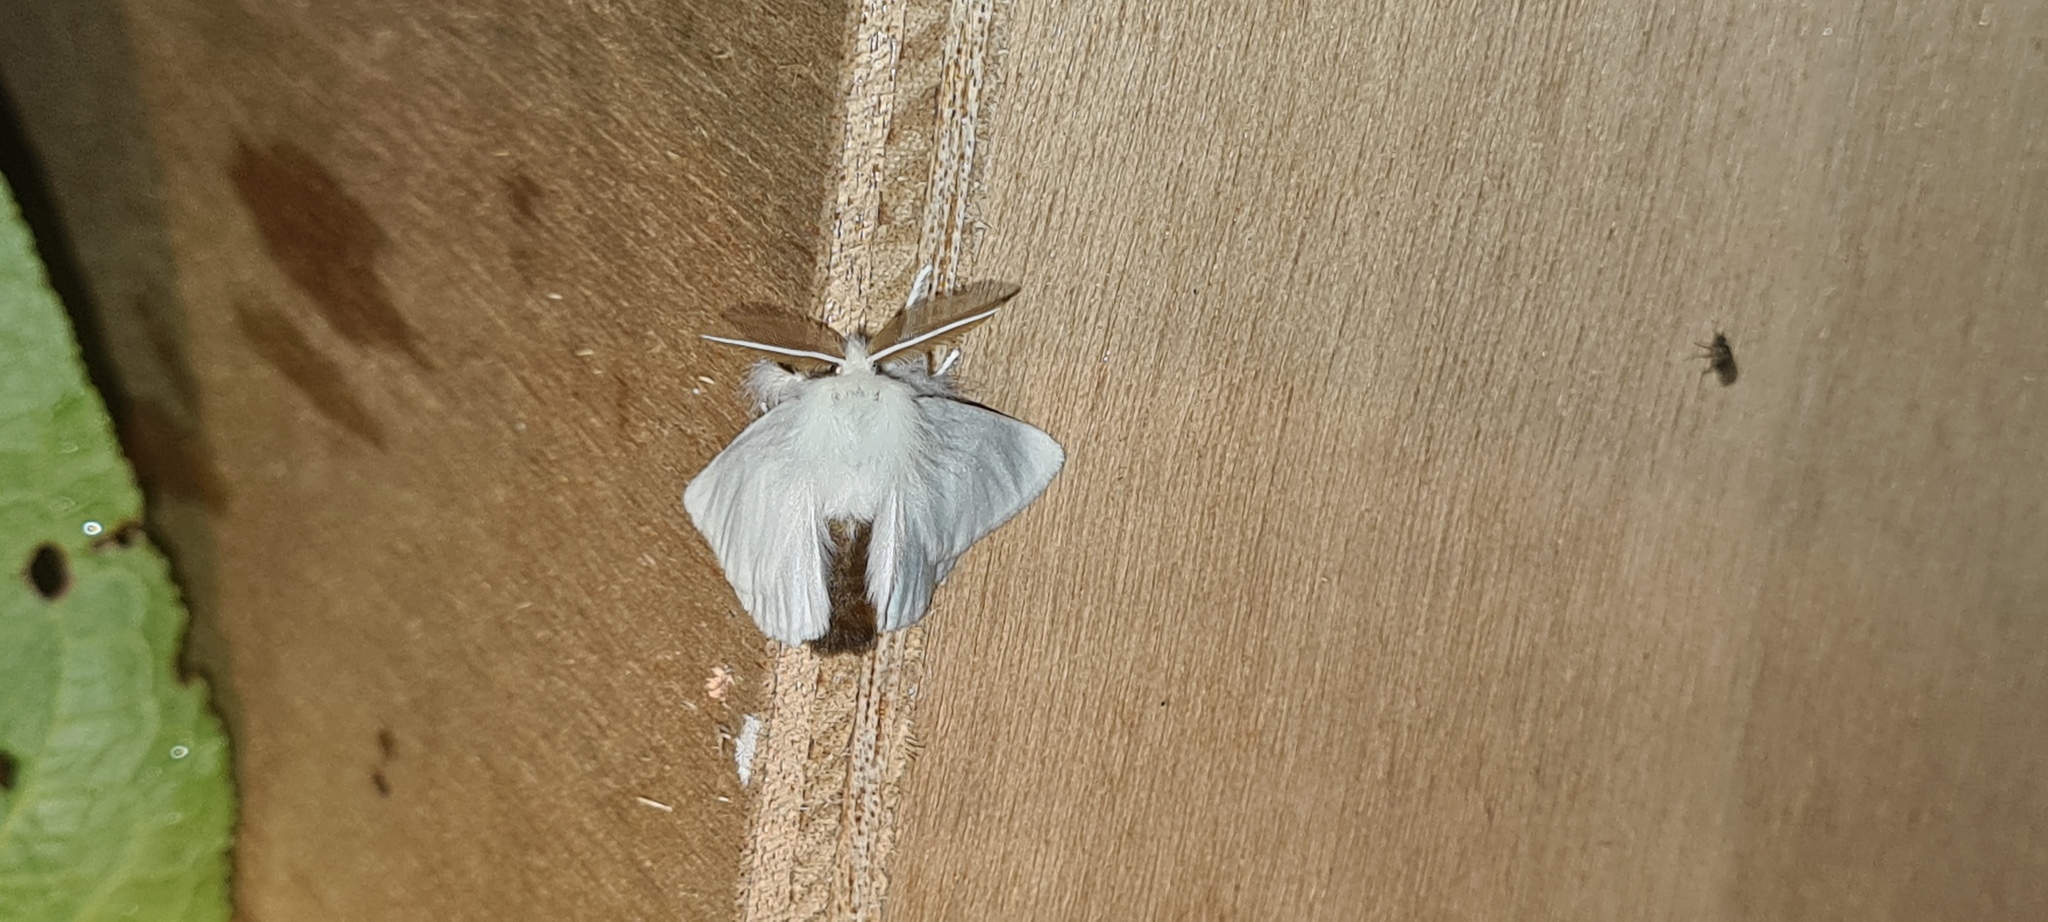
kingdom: Animalia
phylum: Arthropoda
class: Insecta
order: Lepidoptera
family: Erebidae
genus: Euproctis
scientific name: Euproctis chrysorrhoea
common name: Brown-tail
